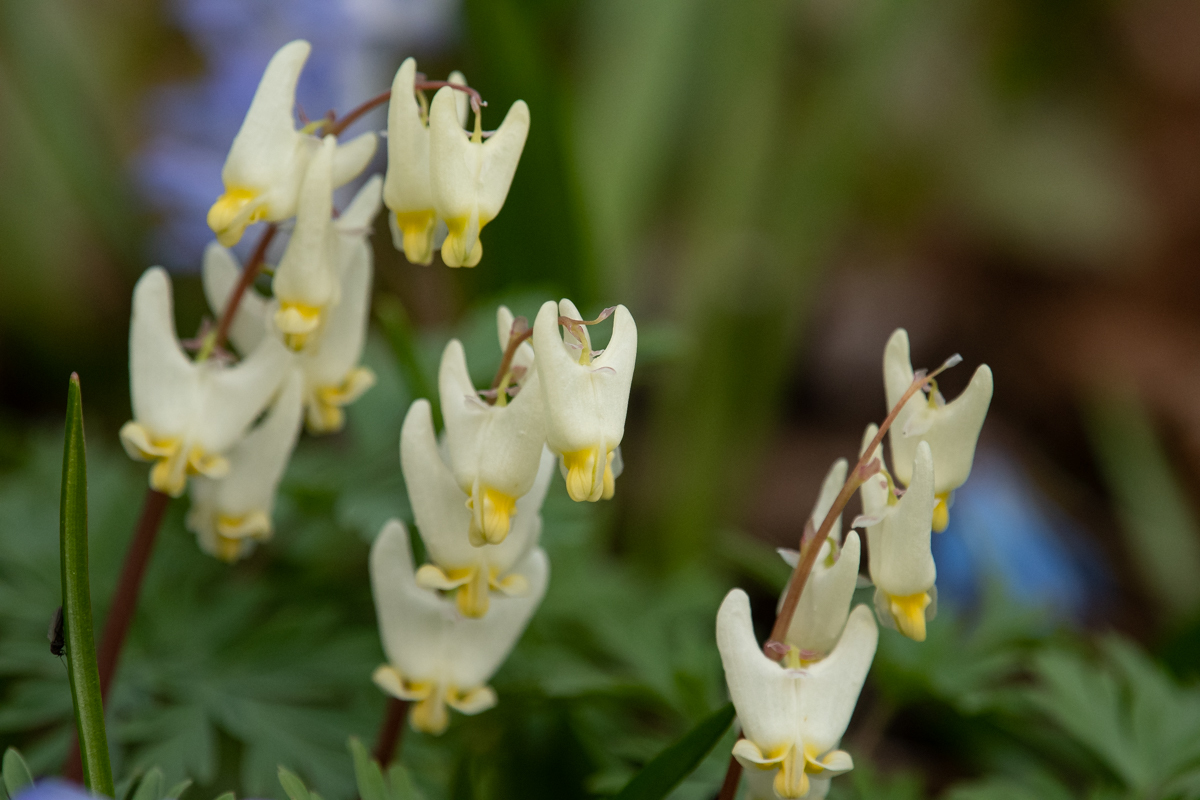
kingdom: Plantae
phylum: Tracheophyta
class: Magnoliopsida
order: Ranunculales
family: Papaveraceae
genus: Dicentra
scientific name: Dicentra cucullaria
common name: Dutchman's breeches
